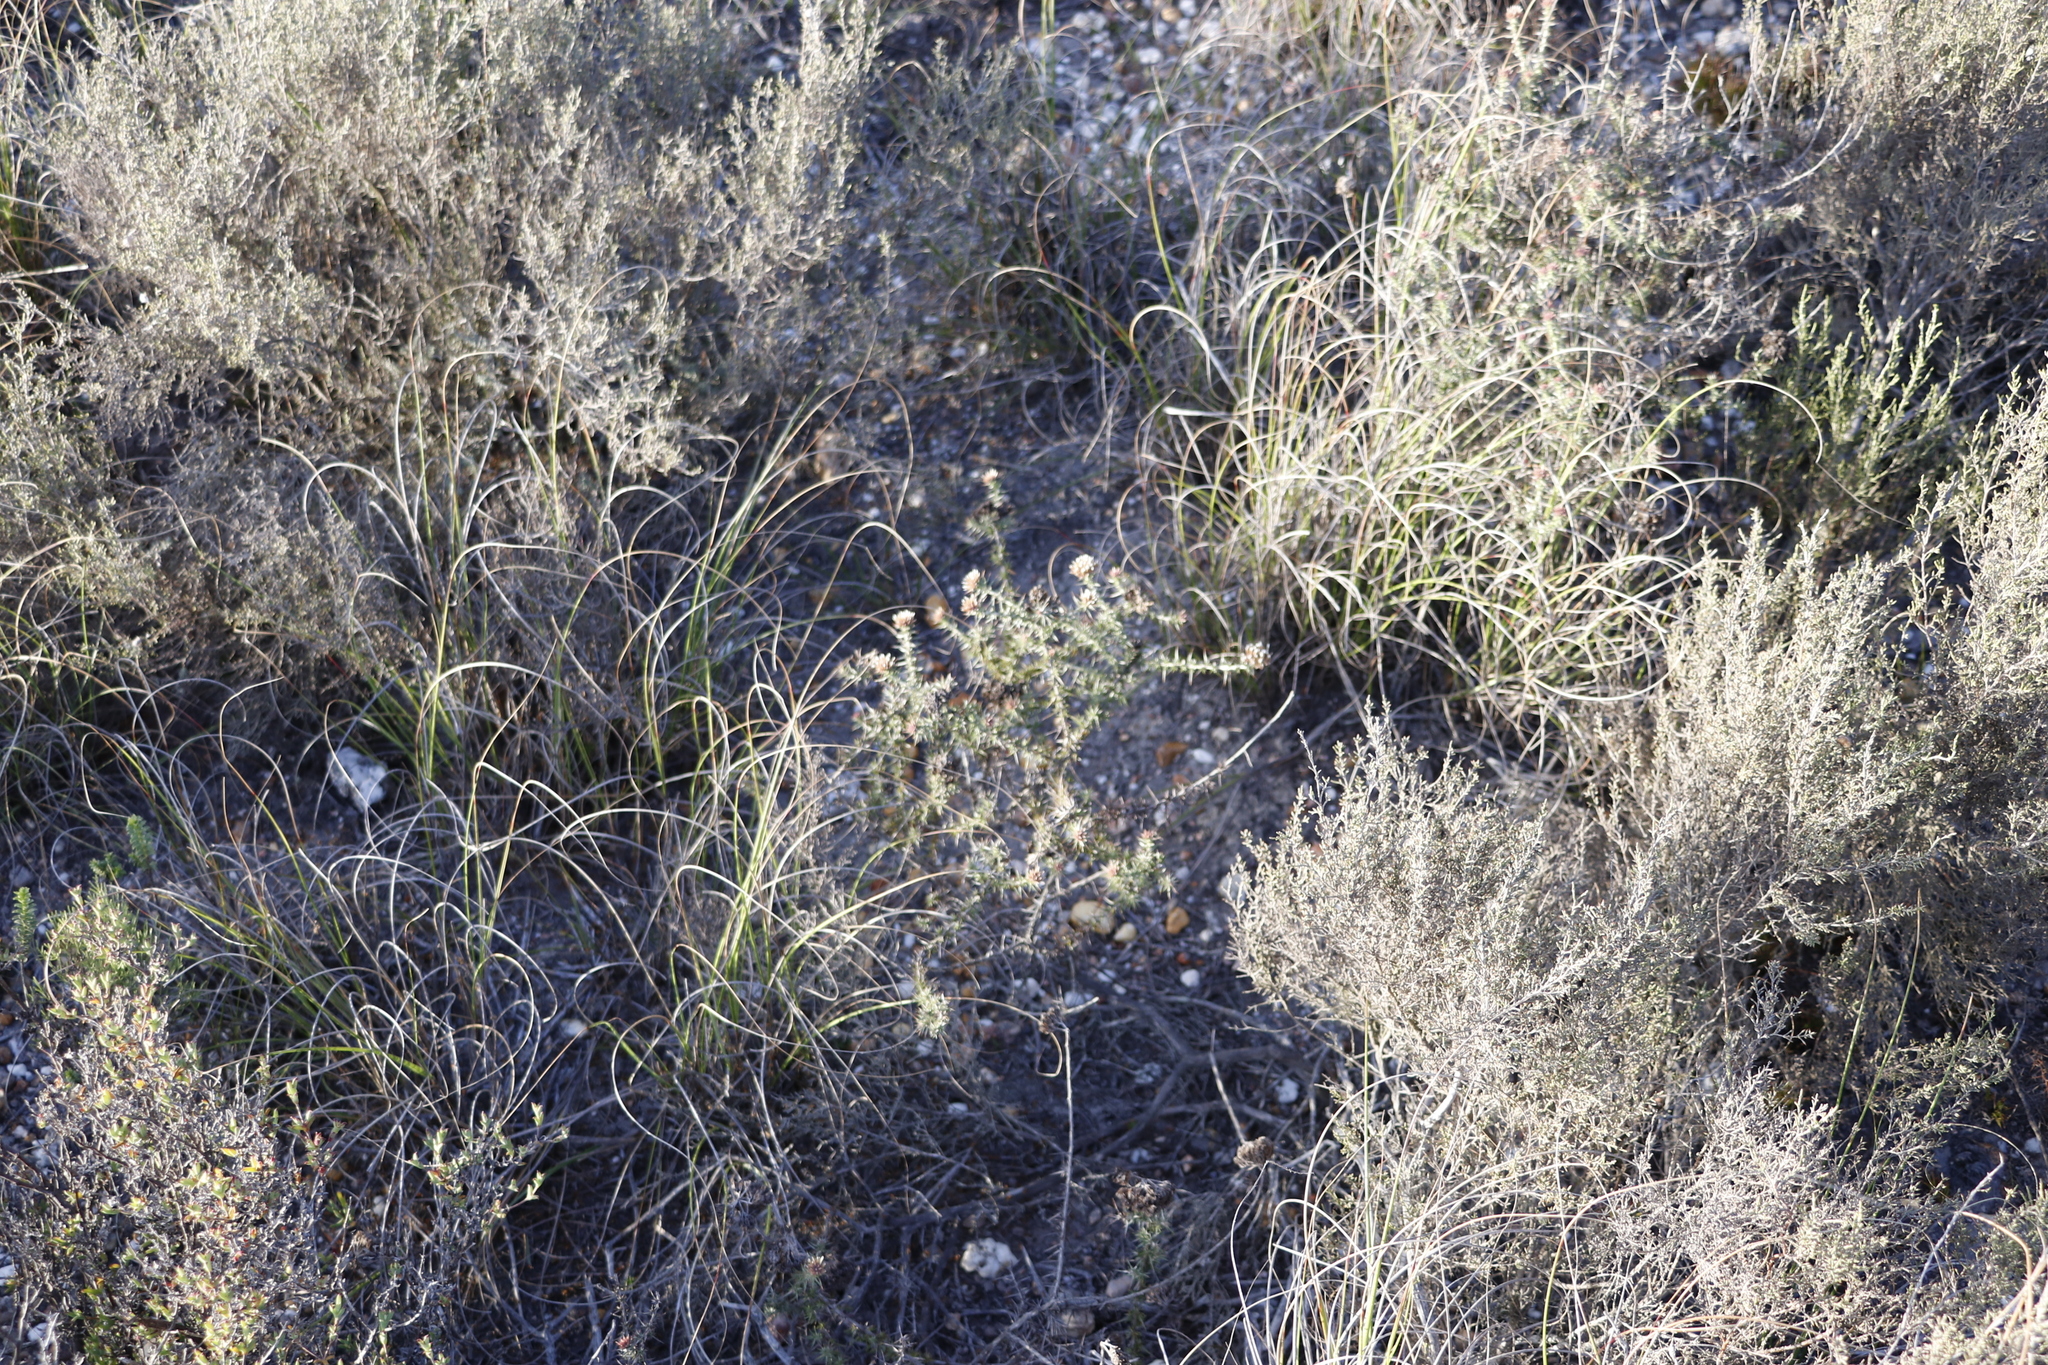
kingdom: Plantae
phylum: Tracheophyta
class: Magnoliopsida
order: Asterales
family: Asteraceae
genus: Metalasia
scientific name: Metalasia acuta
